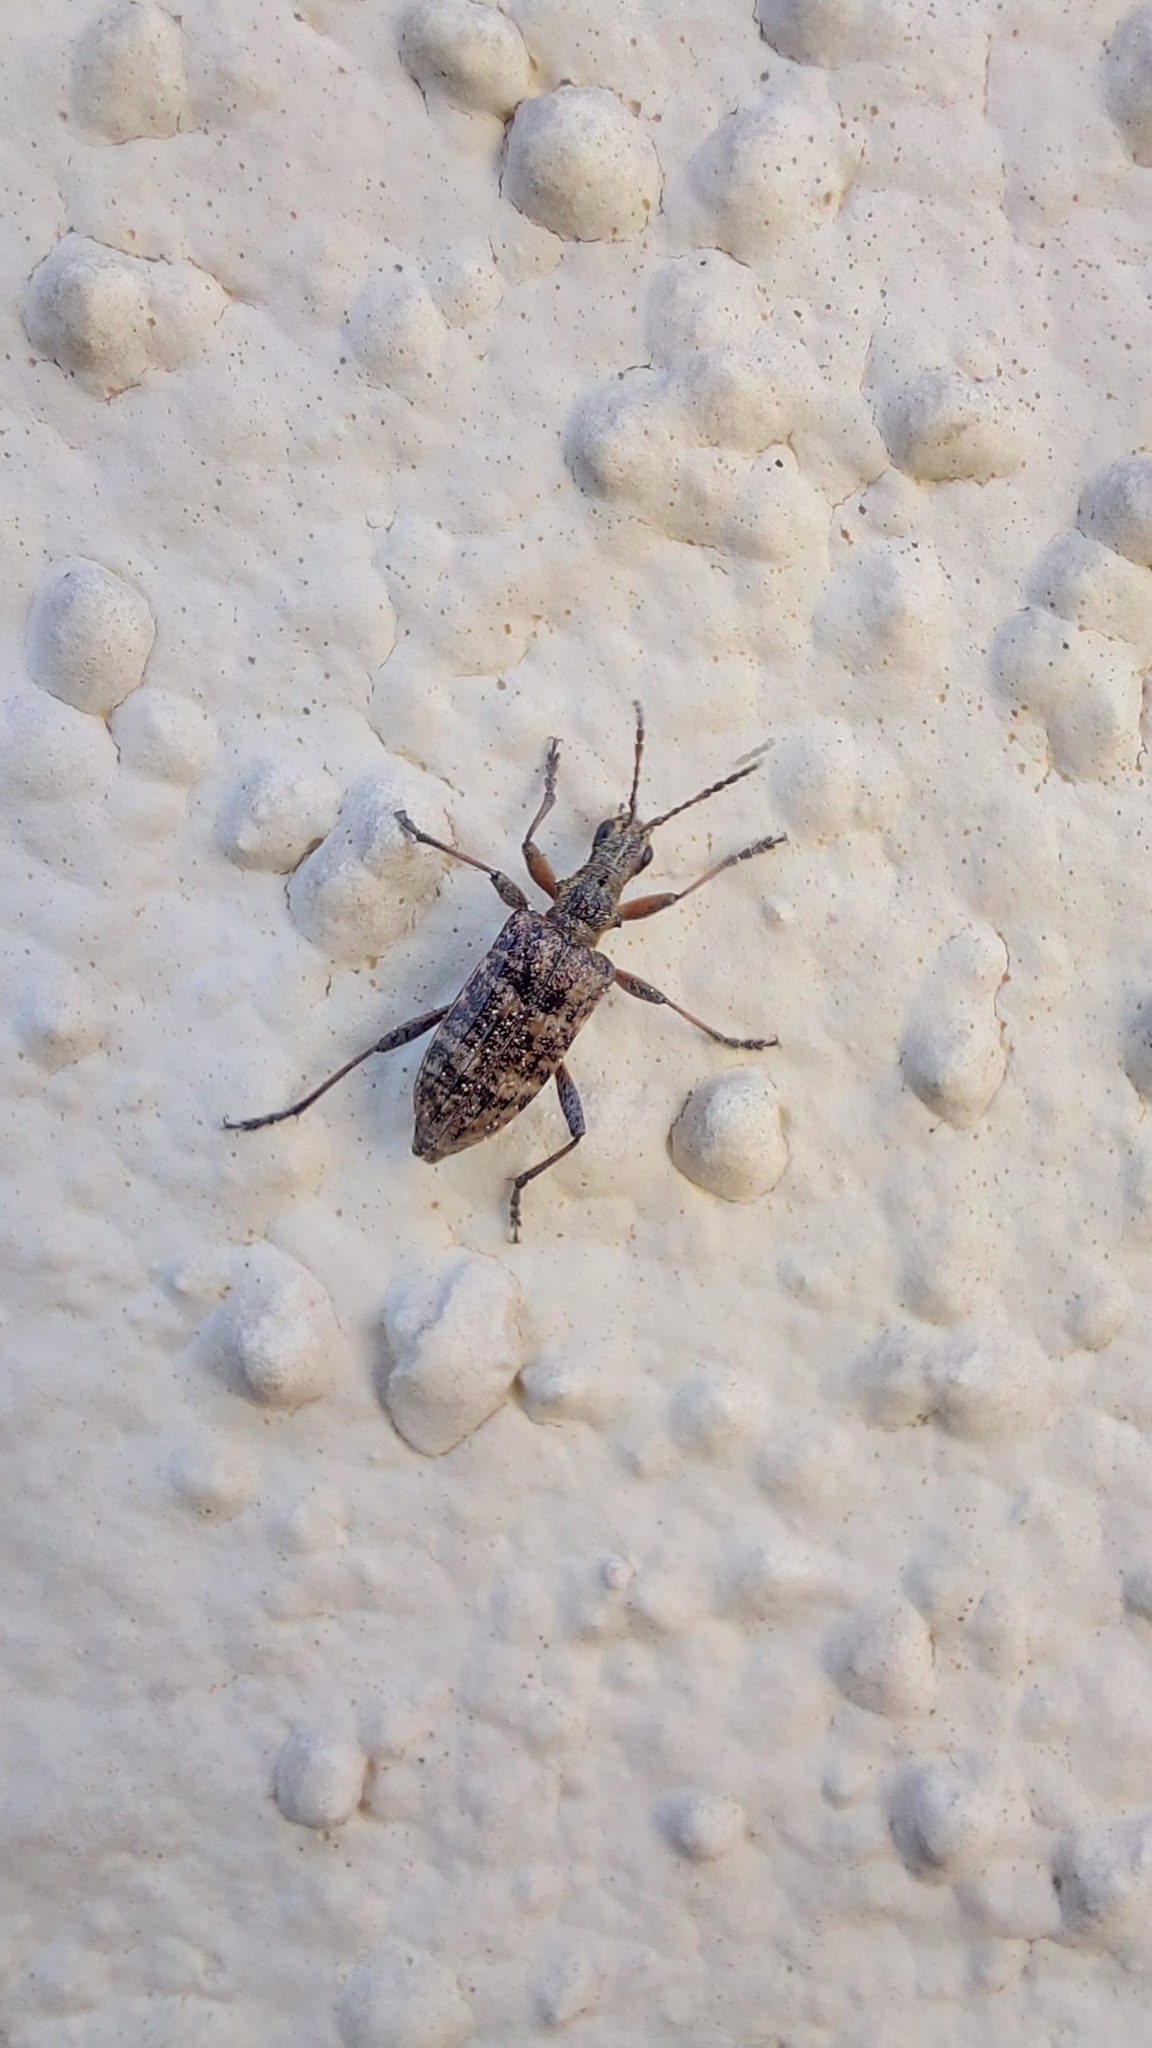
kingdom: Animalia
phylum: Arthropoda
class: Insecta
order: Coleoptera
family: Cerambycidae
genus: Rhagium
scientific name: Rhagium inquisitor
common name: Ribbed pine borer
